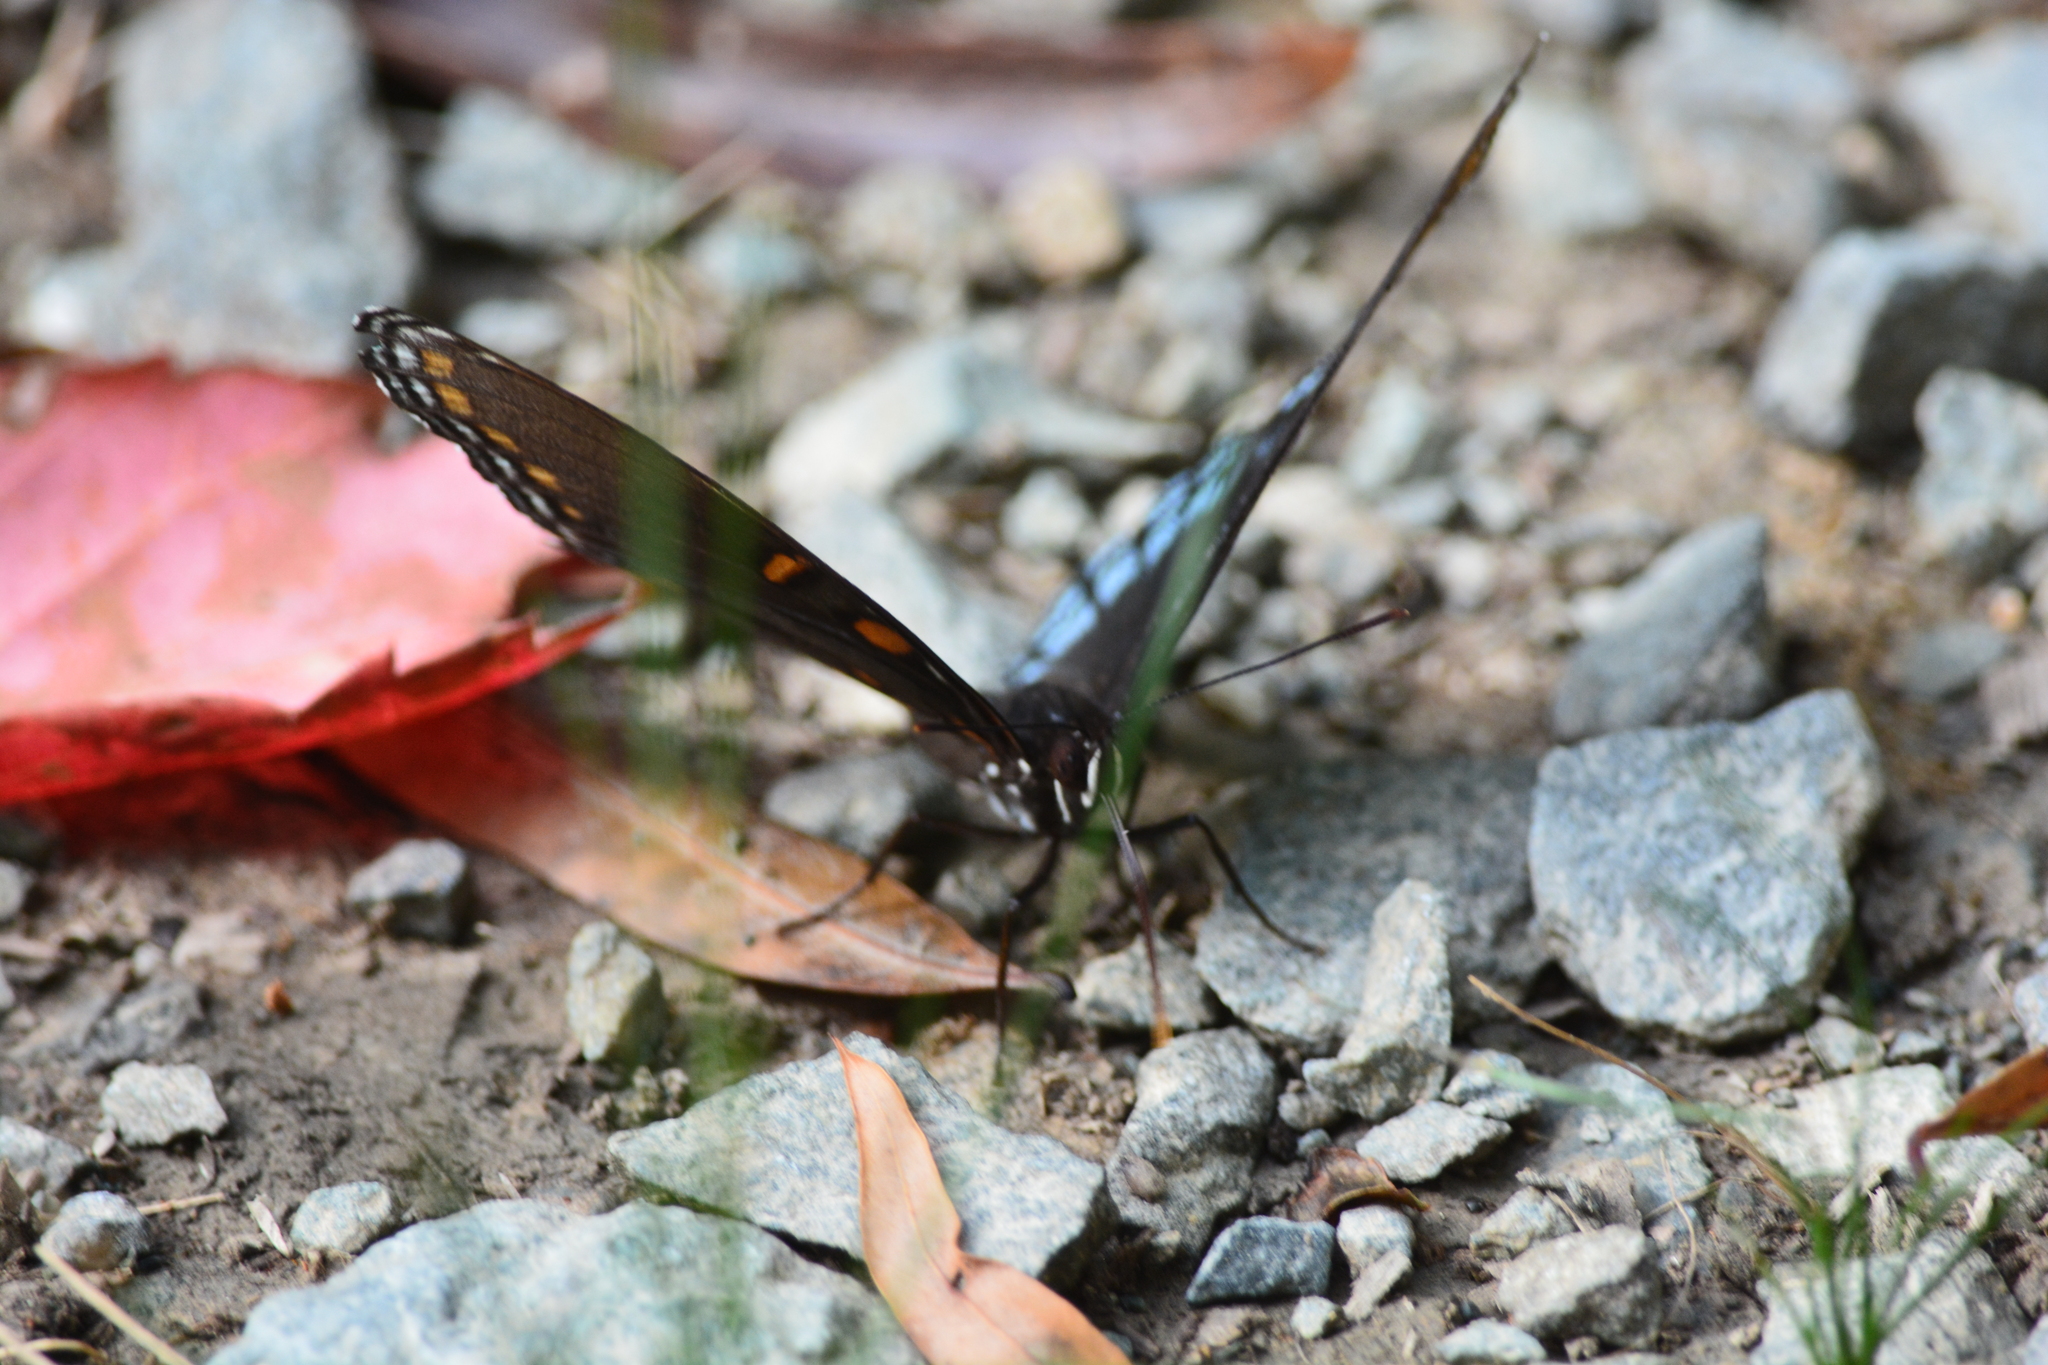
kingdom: Animalia
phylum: Arthropoda
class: Insecta
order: Lepidoptera
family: Nymphalidae
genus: Limenitis
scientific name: Limenitis arthemis
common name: Red-spotted admiral
